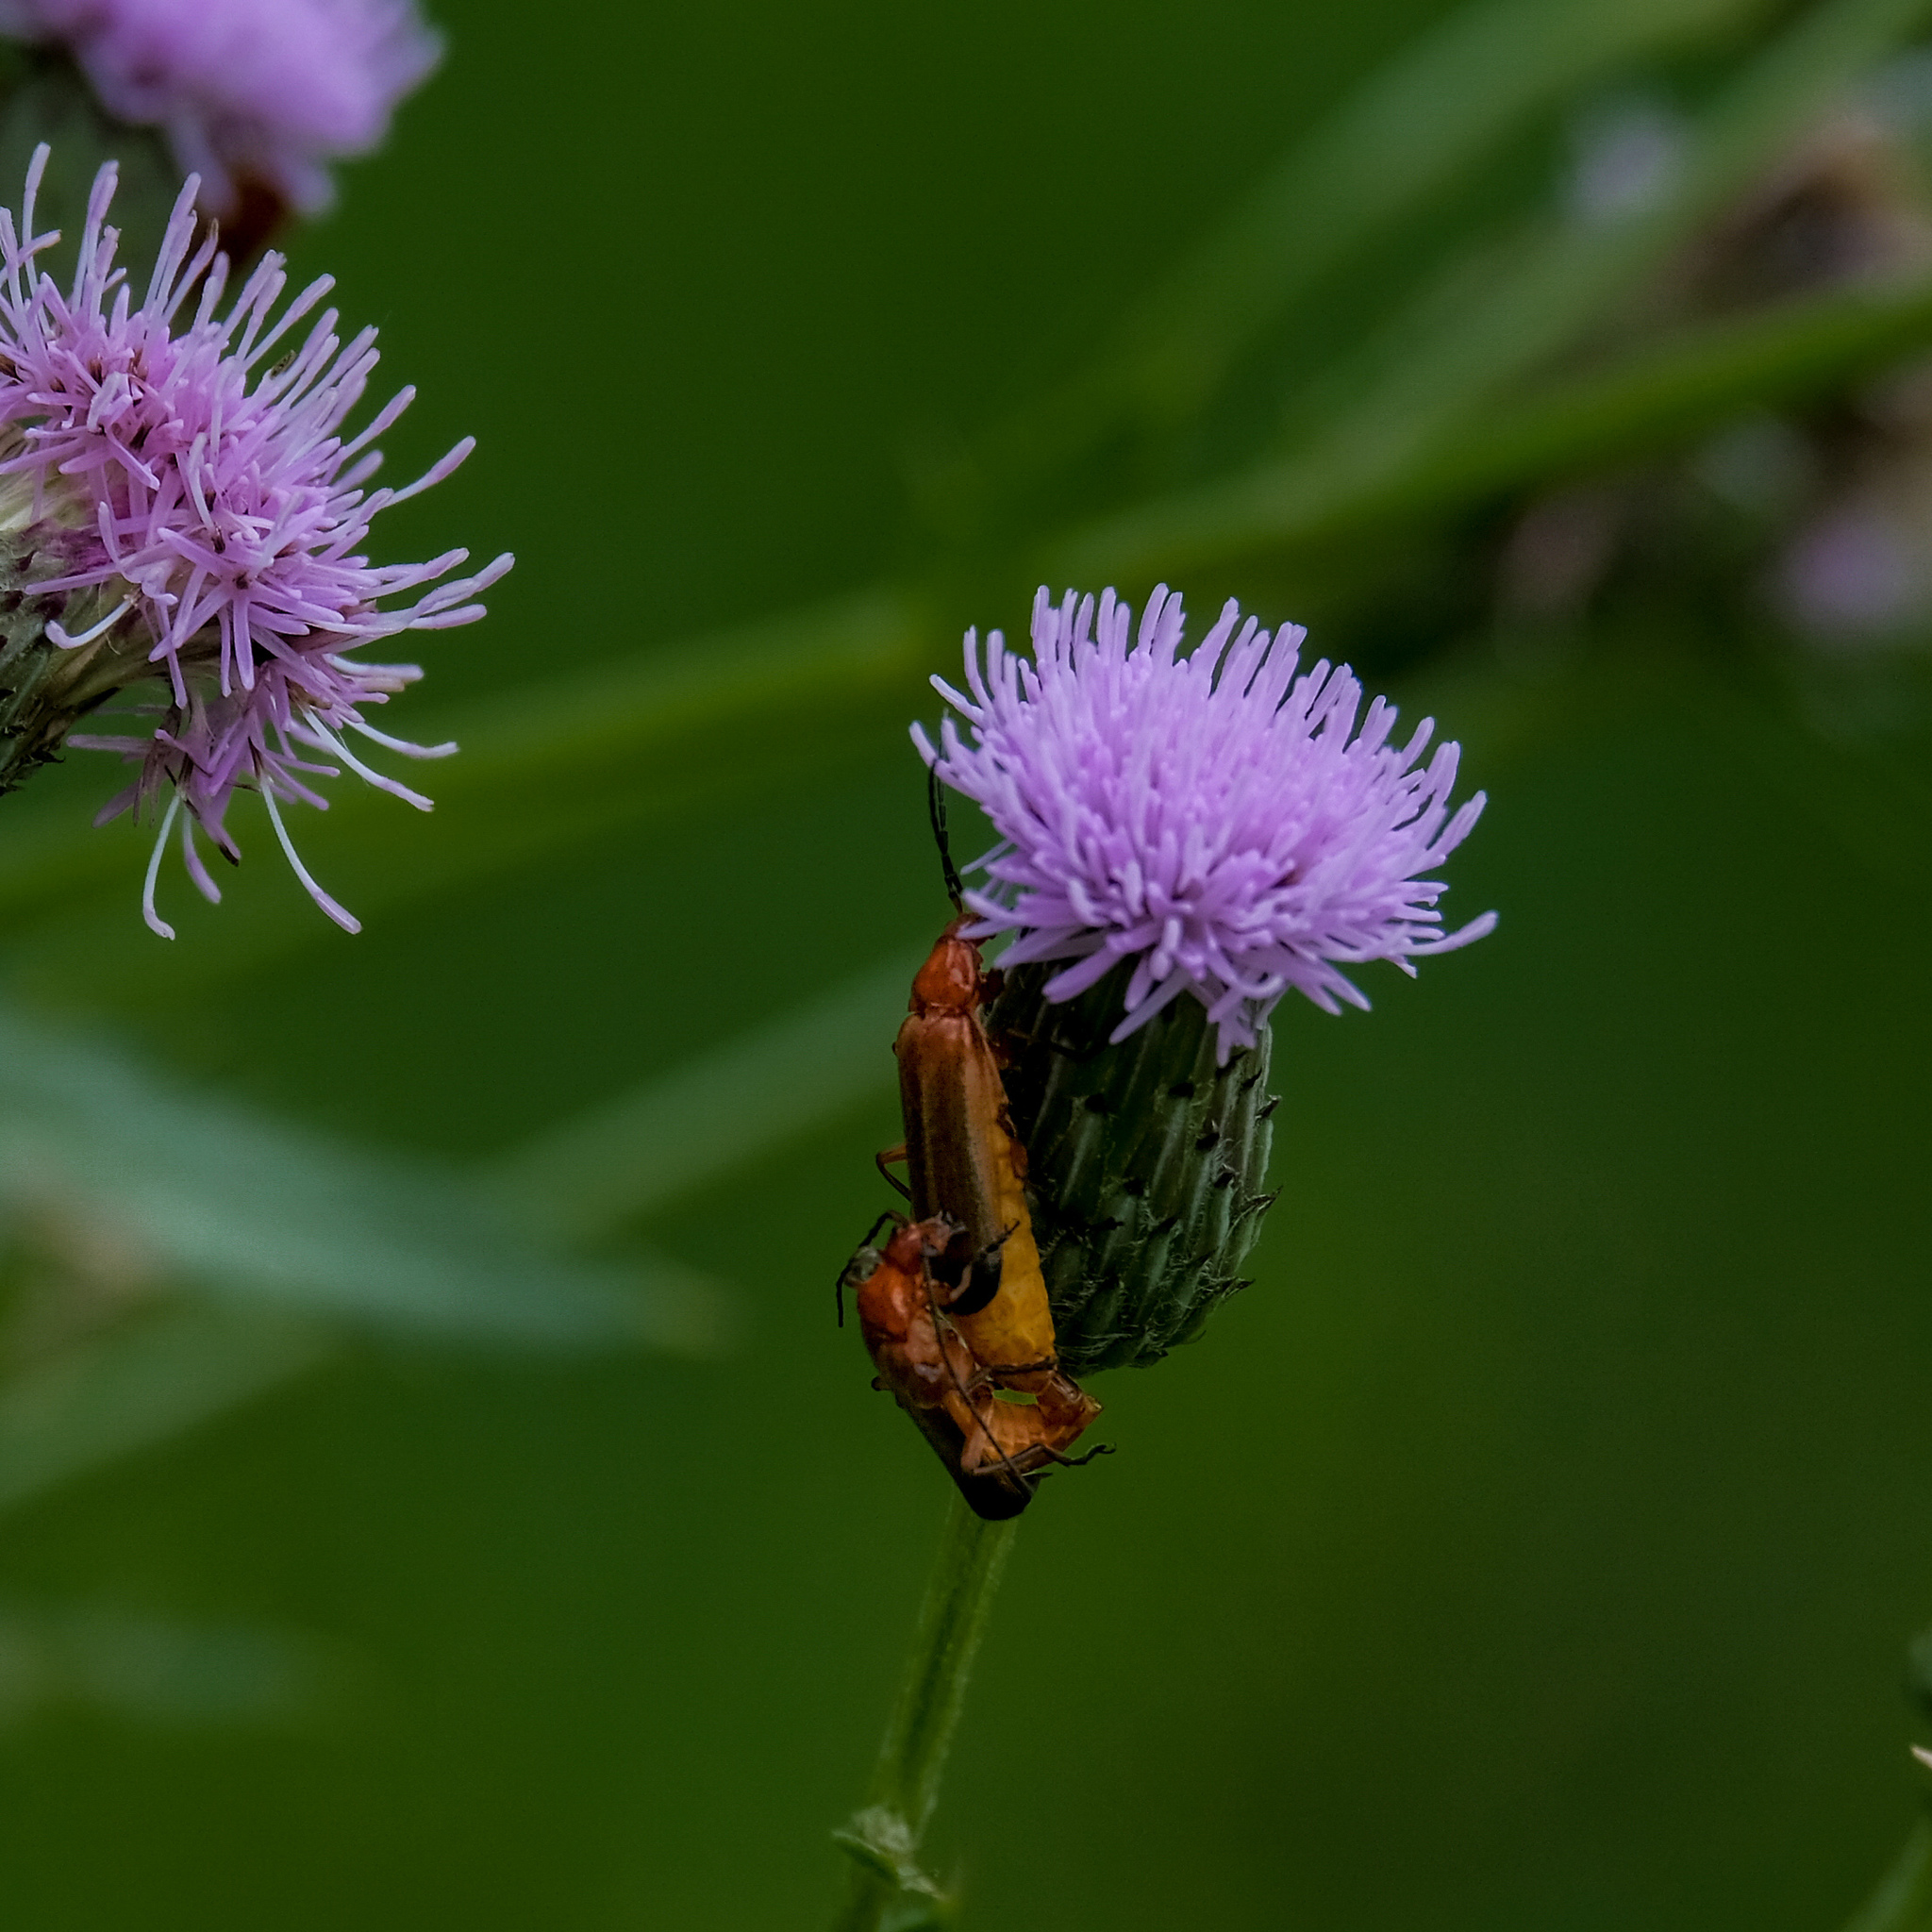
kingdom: Animalia
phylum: Arthropoda
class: Insecta
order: Coleoptera
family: Cantharidae
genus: Rhagonycha
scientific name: Rhagonycha fulva
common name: Common red soldier beetle
